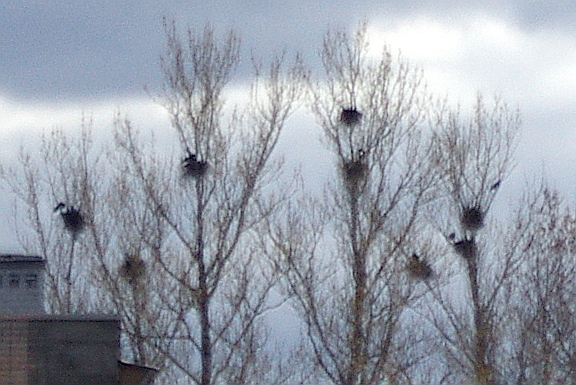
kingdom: Animalia
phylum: Chordata
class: Aves
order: Passeriformes
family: Corvidae
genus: Corvus
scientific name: Corvus frugilegus
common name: Rook
